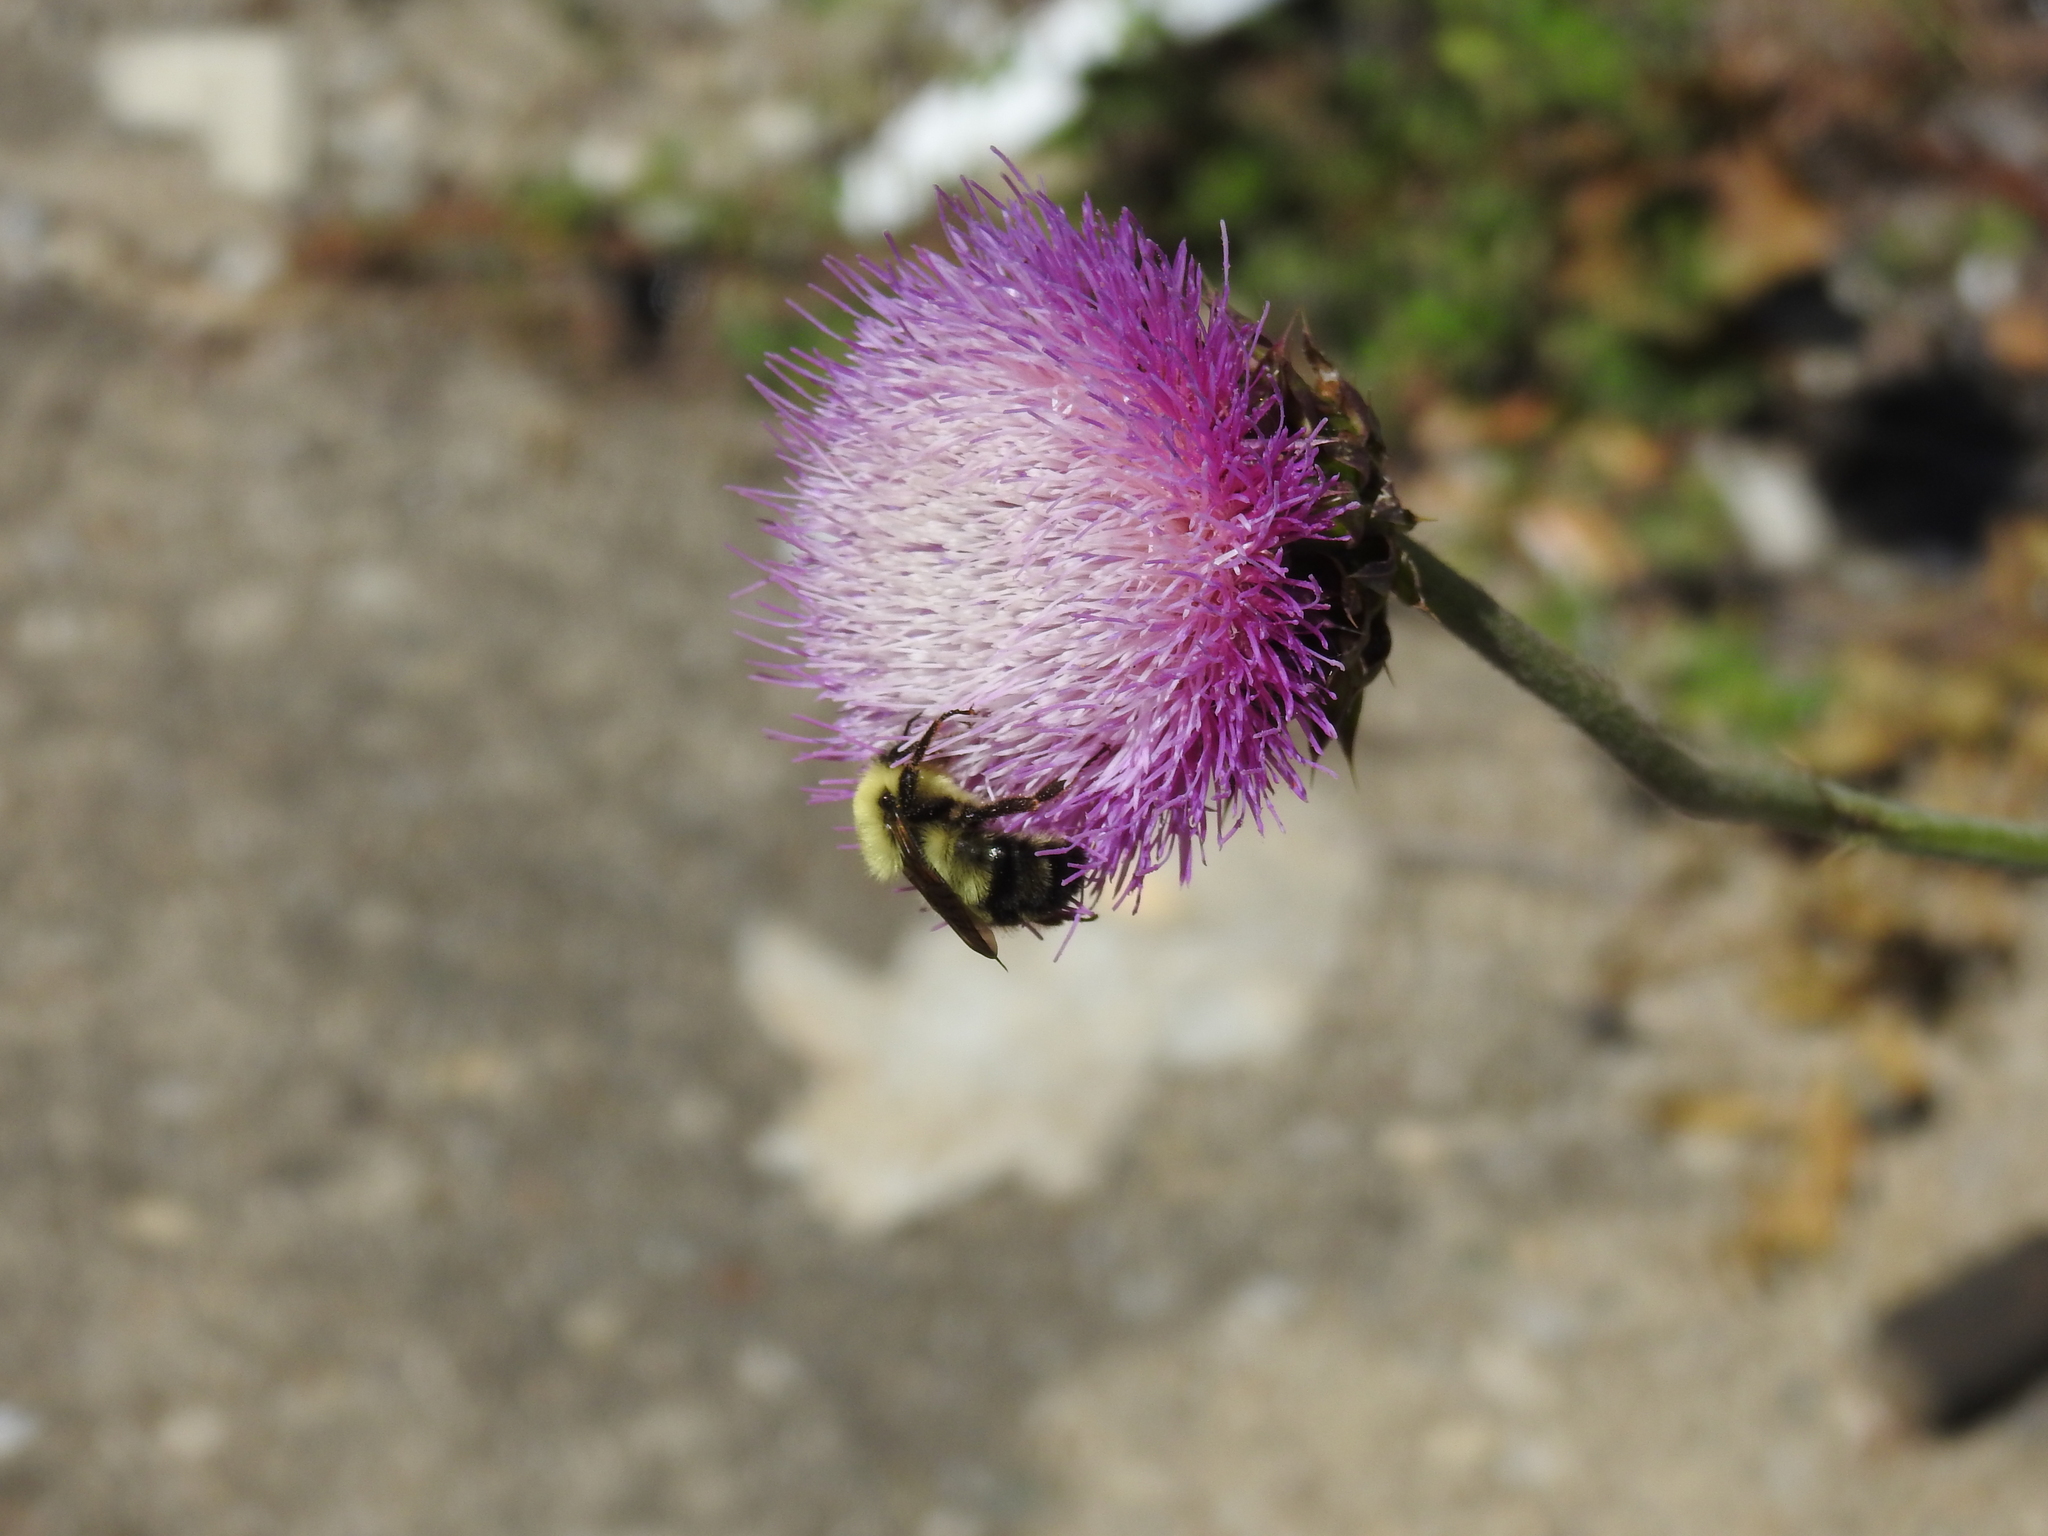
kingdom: Animalia
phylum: Arthropoda
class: Insecta
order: Hymenoptera
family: Apidae
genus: Bombus
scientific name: Bombus bimaculatus
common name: Two-spotted bumble bee
